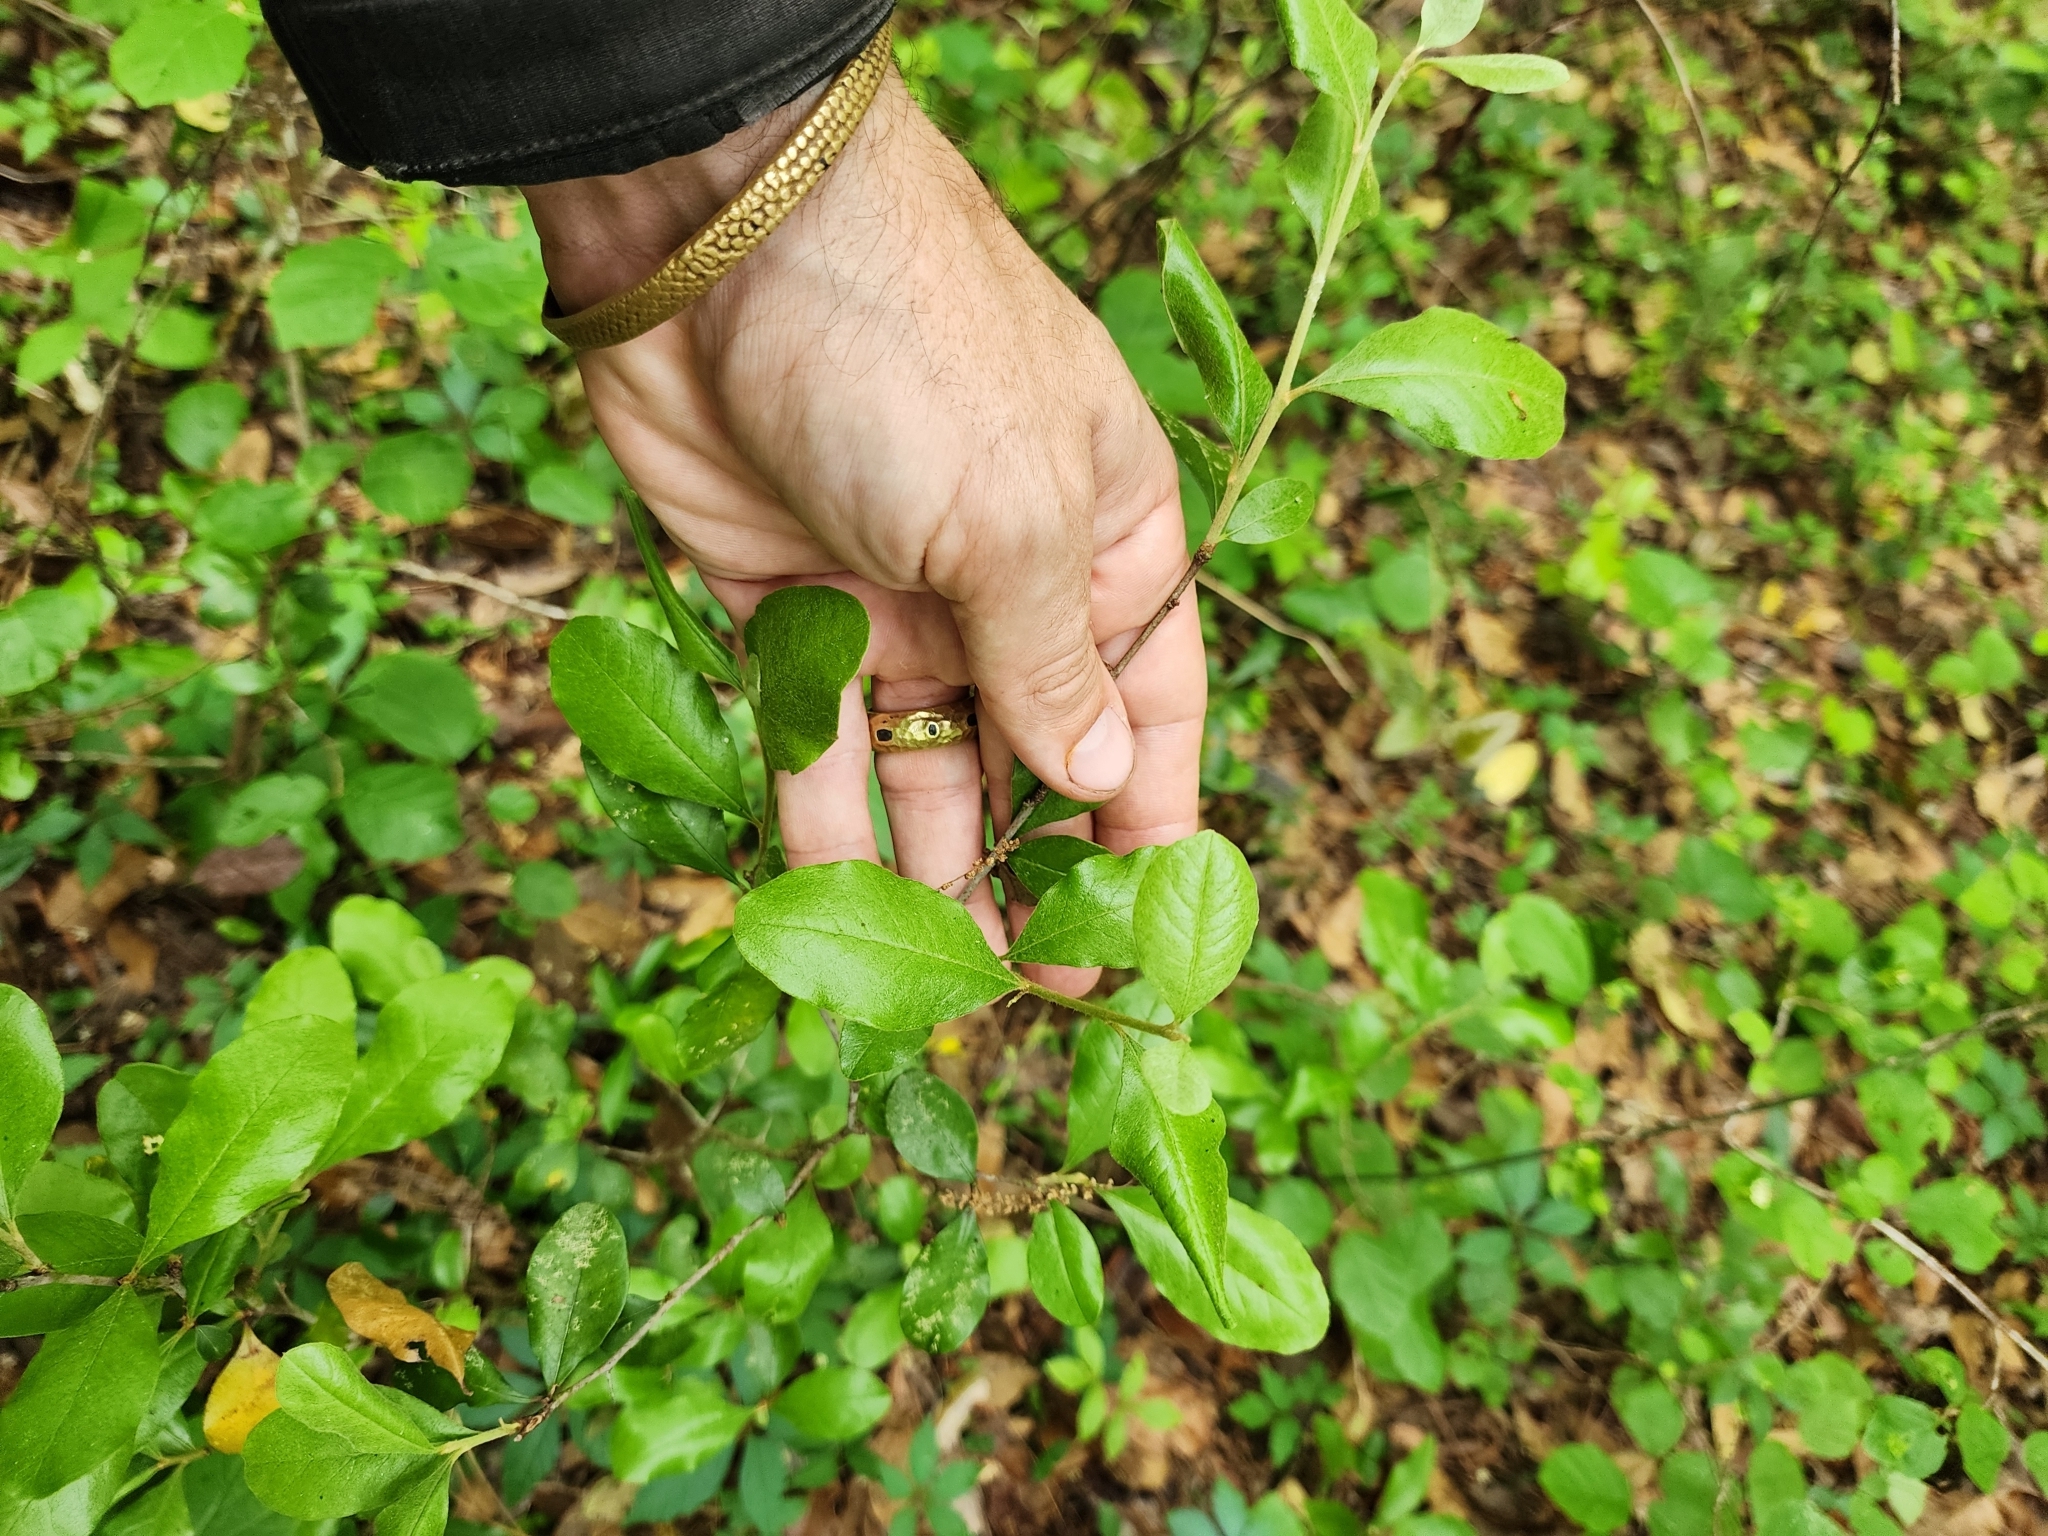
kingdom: Plantae
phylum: Tracheophyta
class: Magnoliopsida
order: Ericales
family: Sapotaceae
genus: Sideroxylon
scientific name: Sideroxylon lanuginosum
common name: Chittamwood
